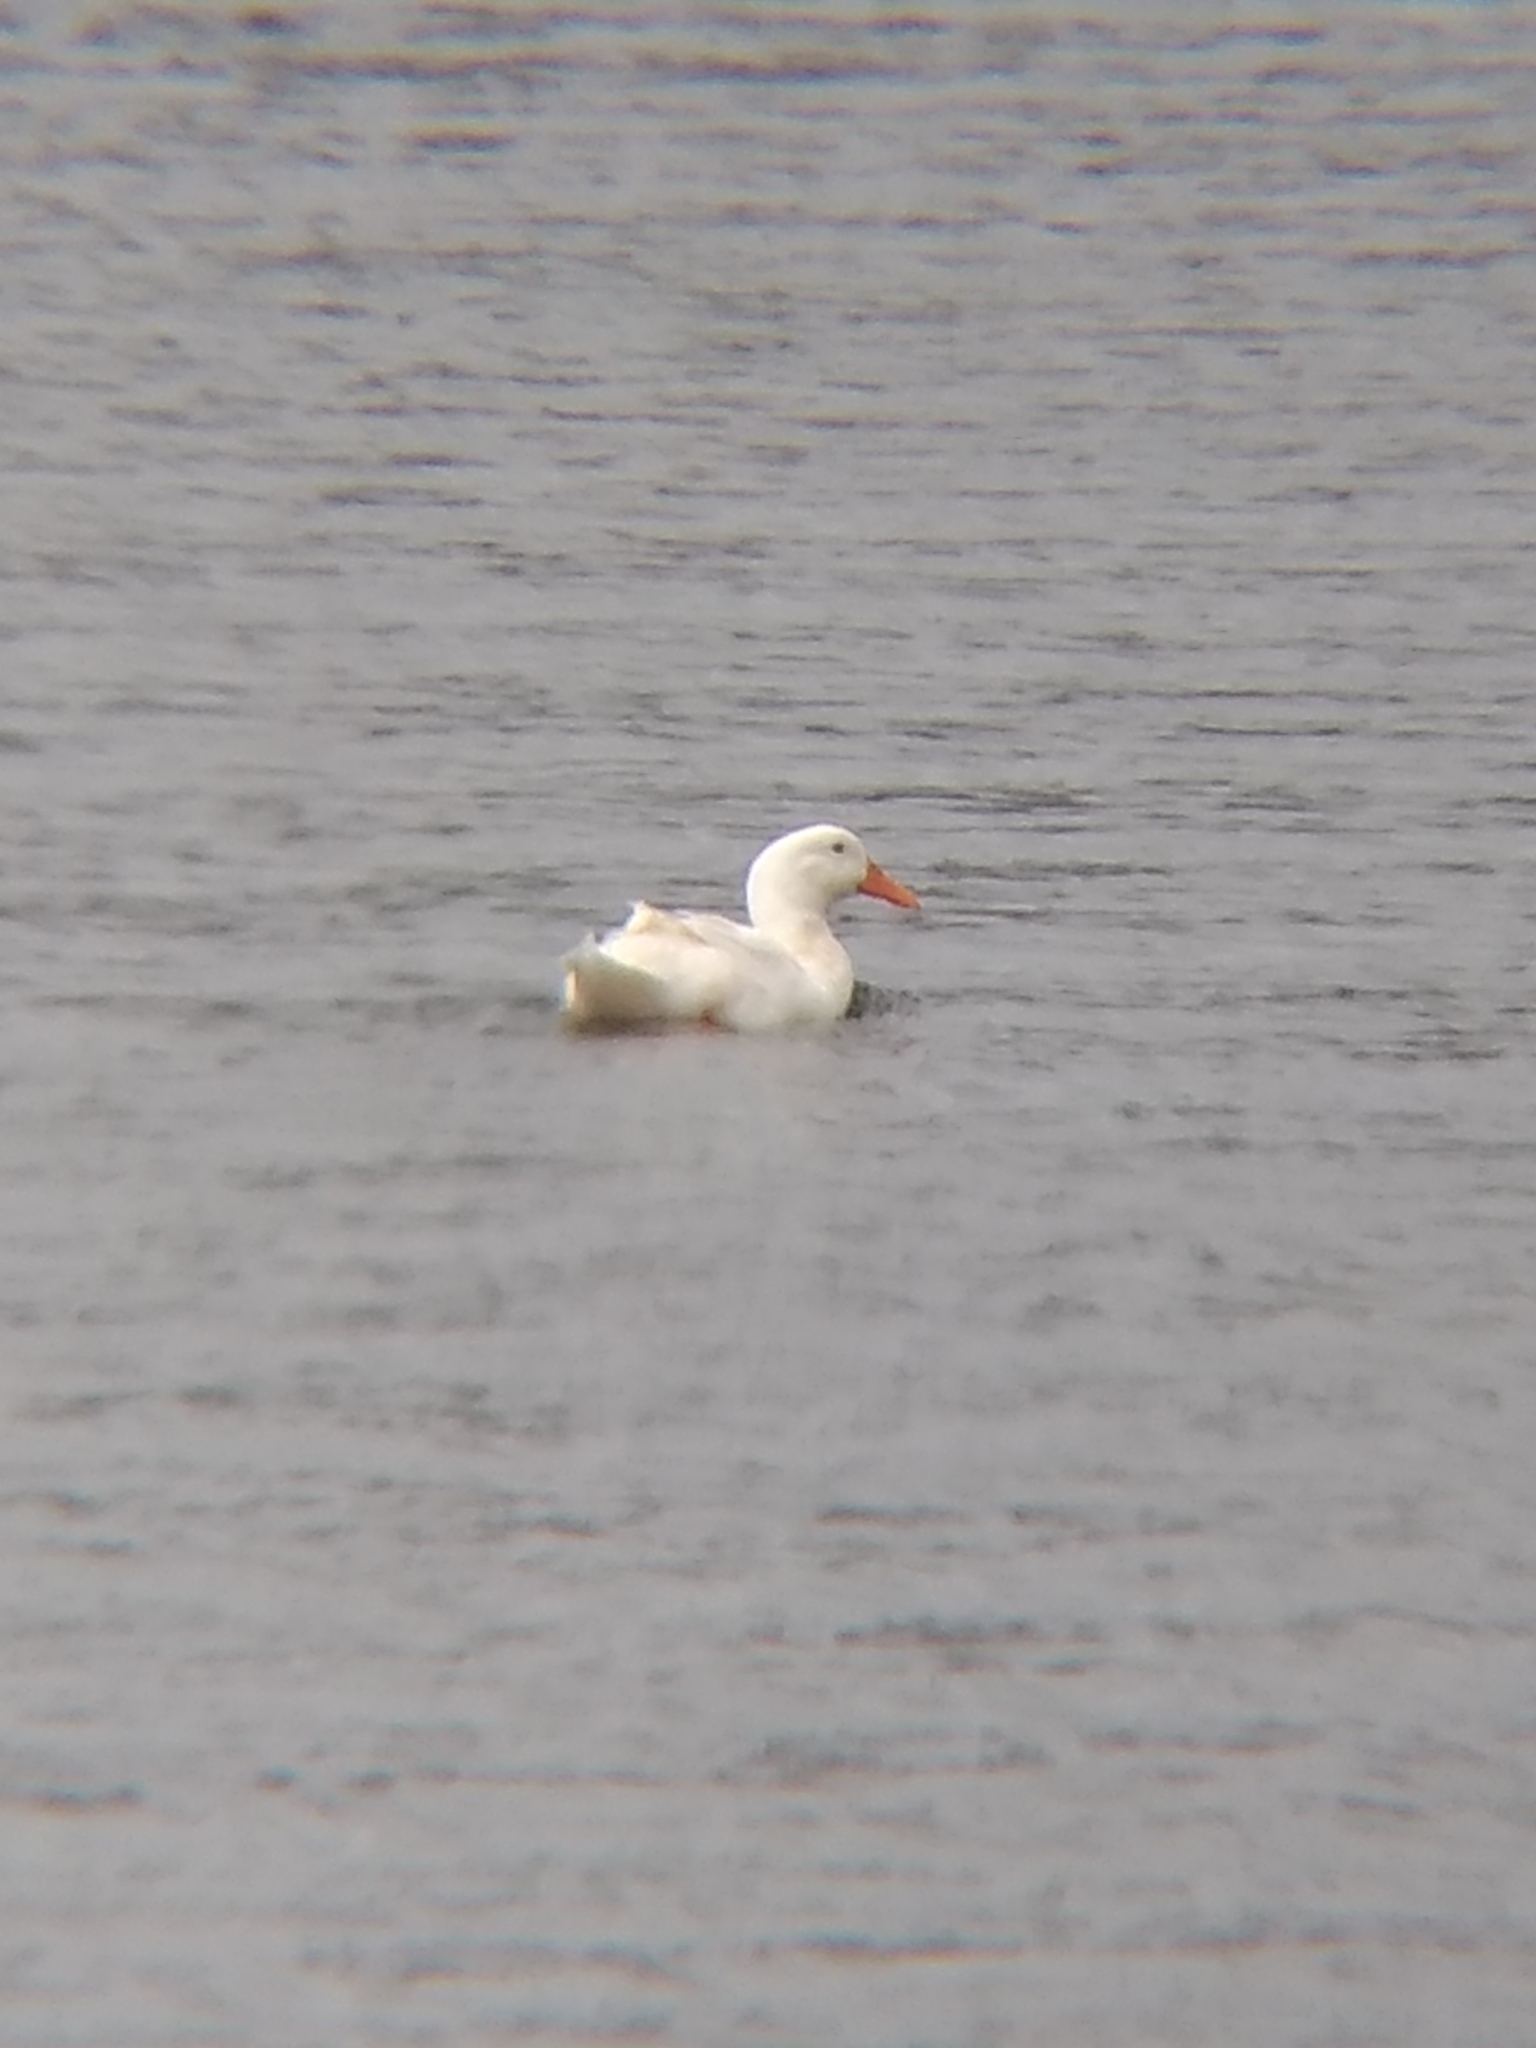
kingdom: Animalia
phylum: Chordata
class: Aves
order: Anseriformes
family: Anatidae
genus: Anas
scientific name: Anas platyrhynchos
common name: Mallard
